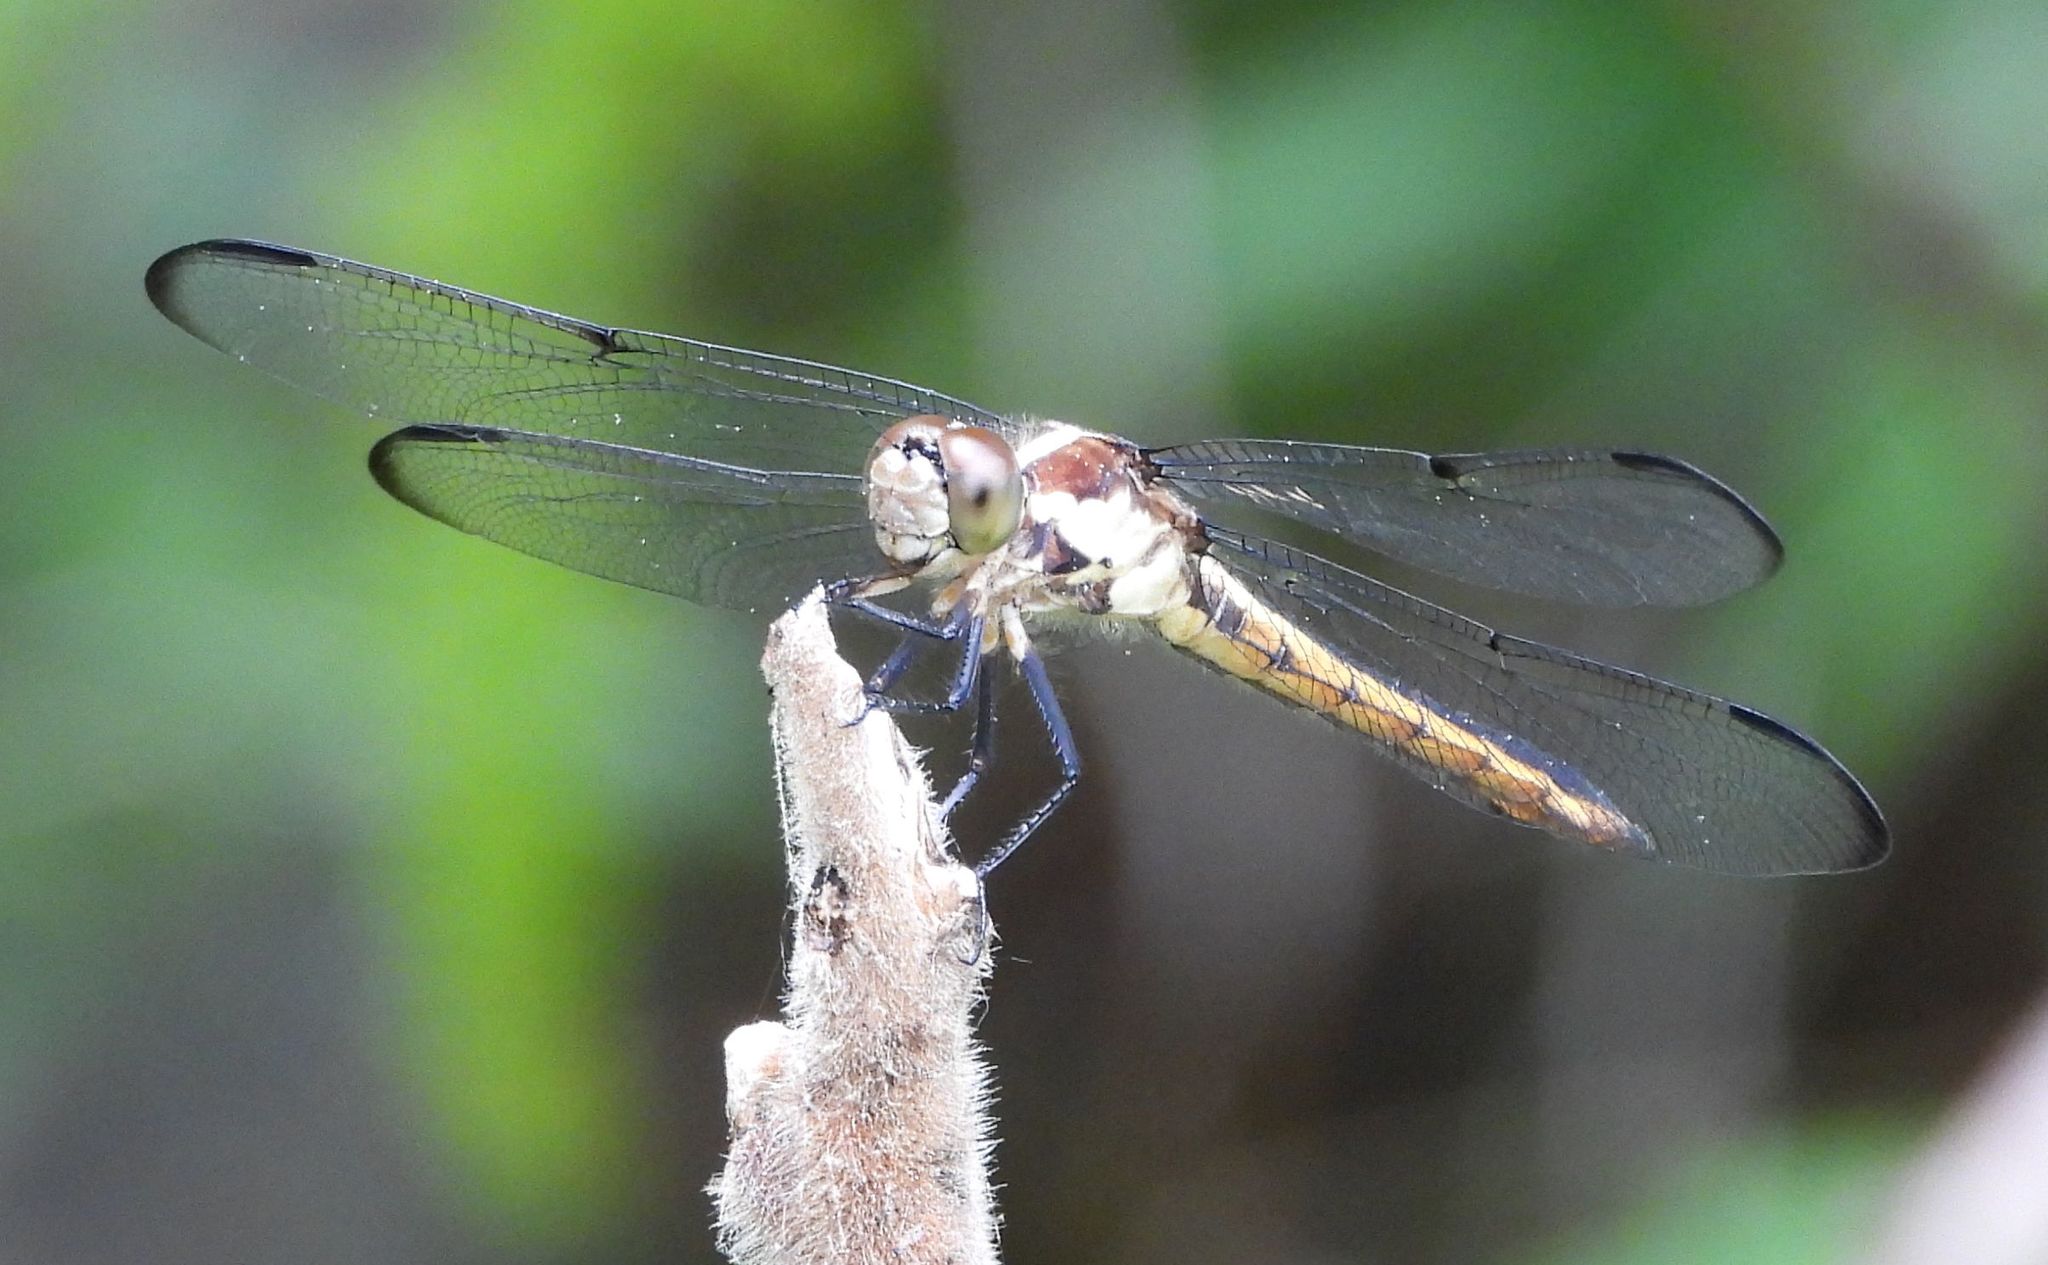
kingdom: Animalia
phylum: Arthropoda
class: Insecta
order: Odonata
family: Libellulidae
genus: Libellula
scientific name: Libellula incesta
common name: Slaty skimmer
